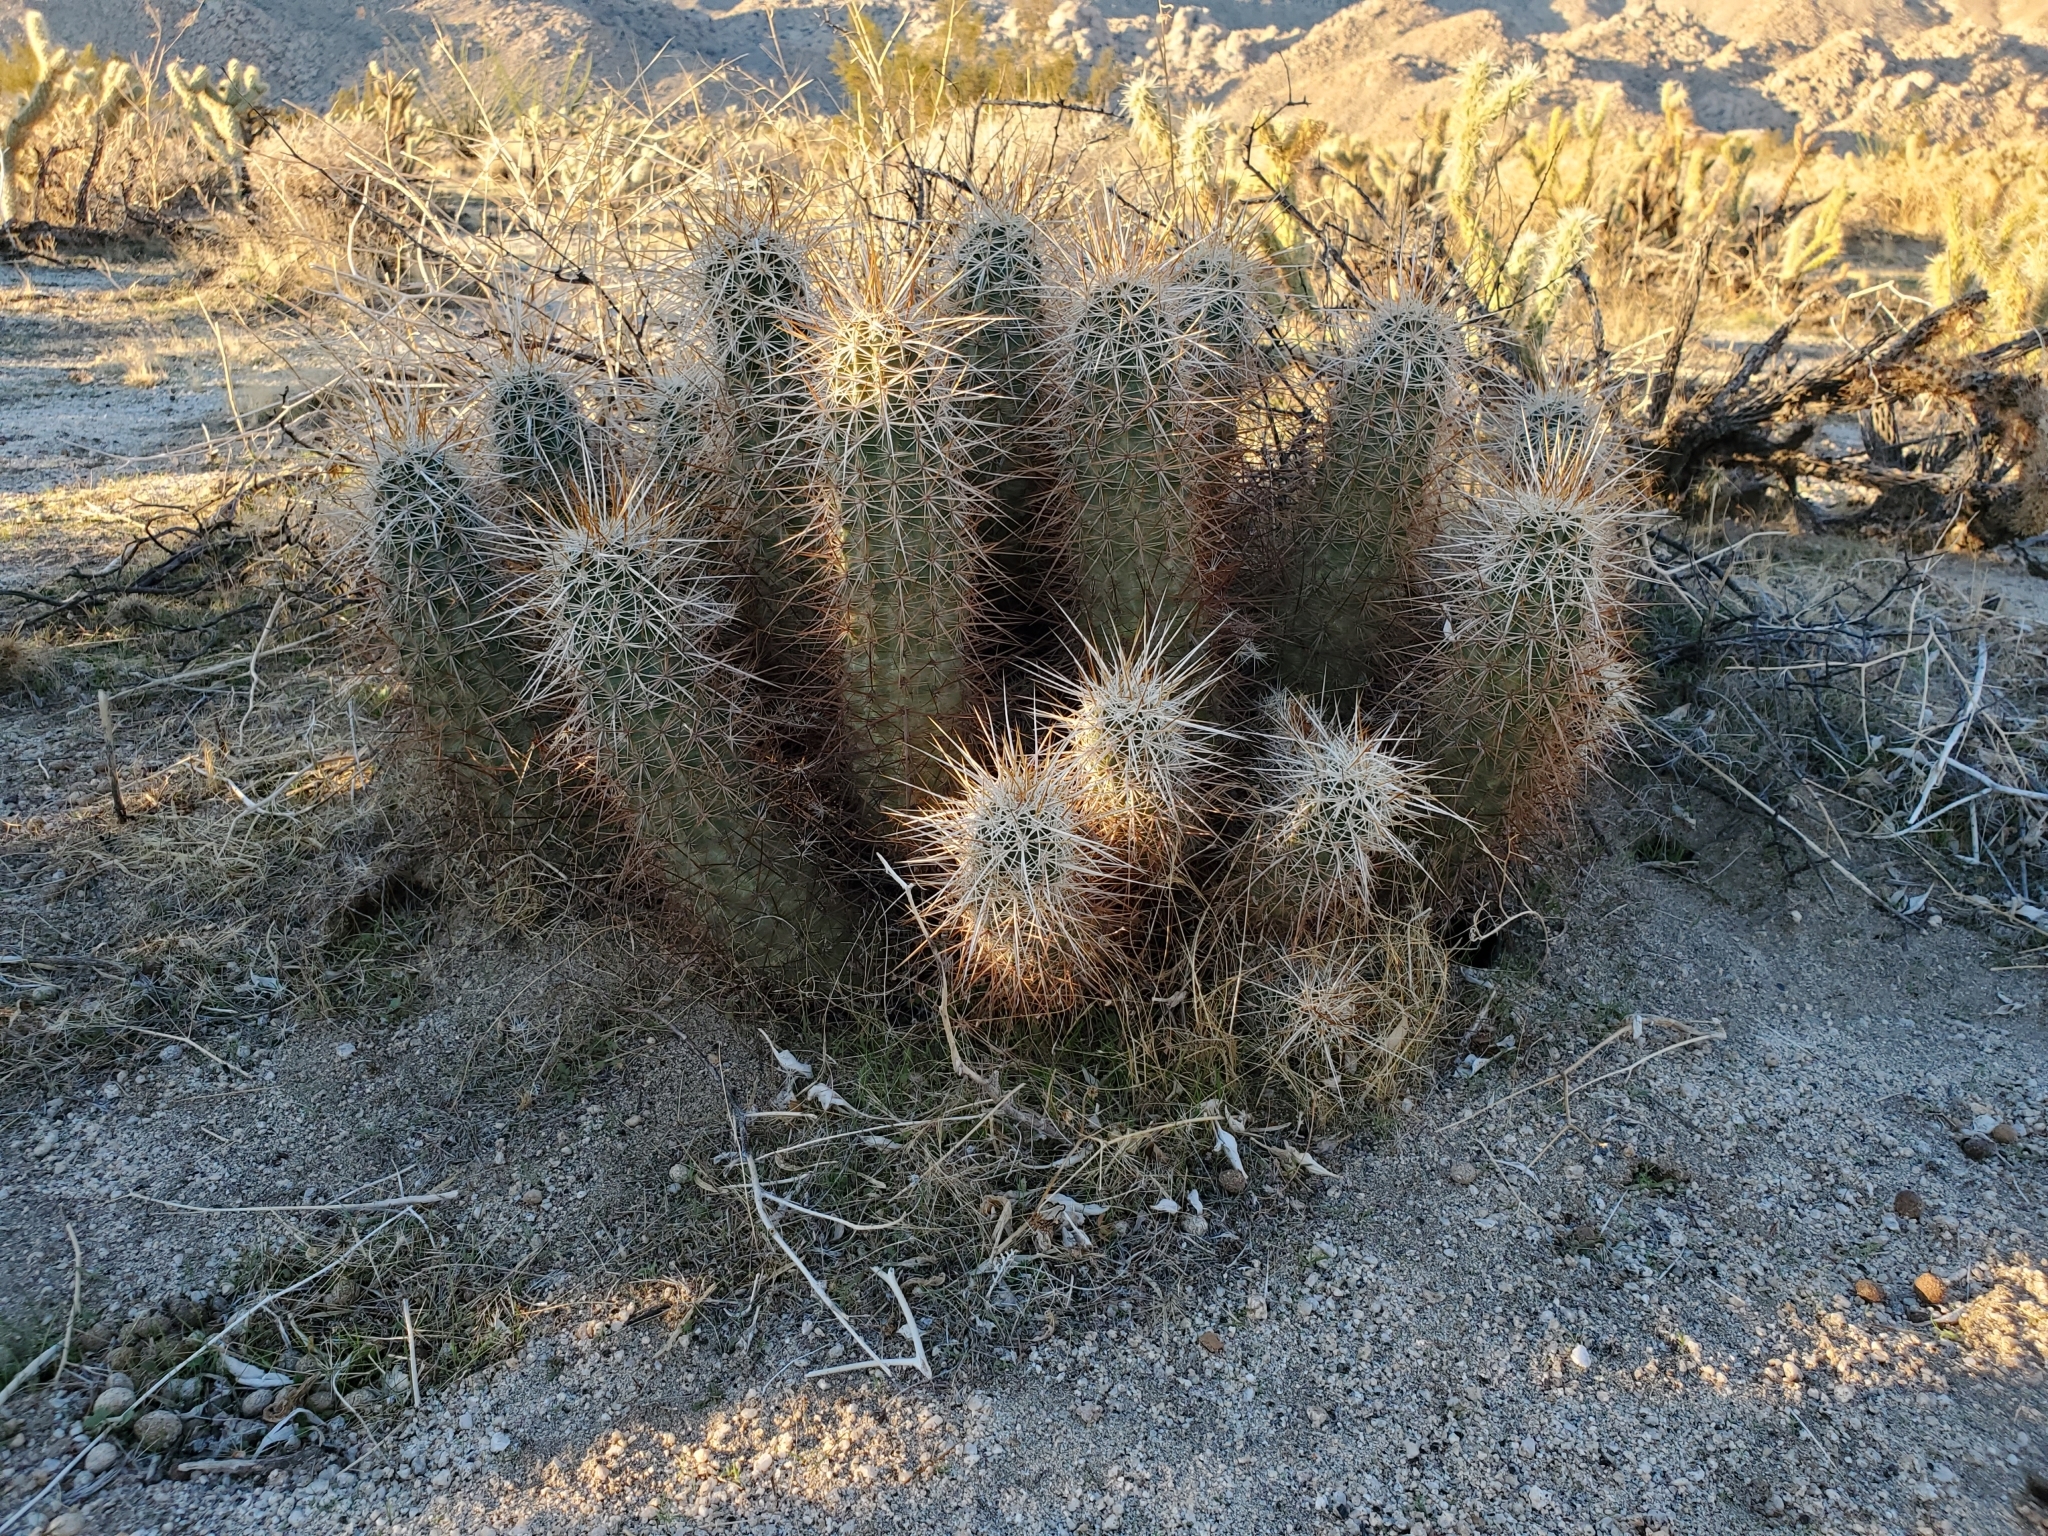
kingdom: Plantae
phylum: Tracheophyta
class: Magnoliopsida
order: Caryophyllales
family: Cactaceae
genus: Echinocereus
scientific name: Echinocereus engelmannii
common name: Engelmann's hedgehog cactus
